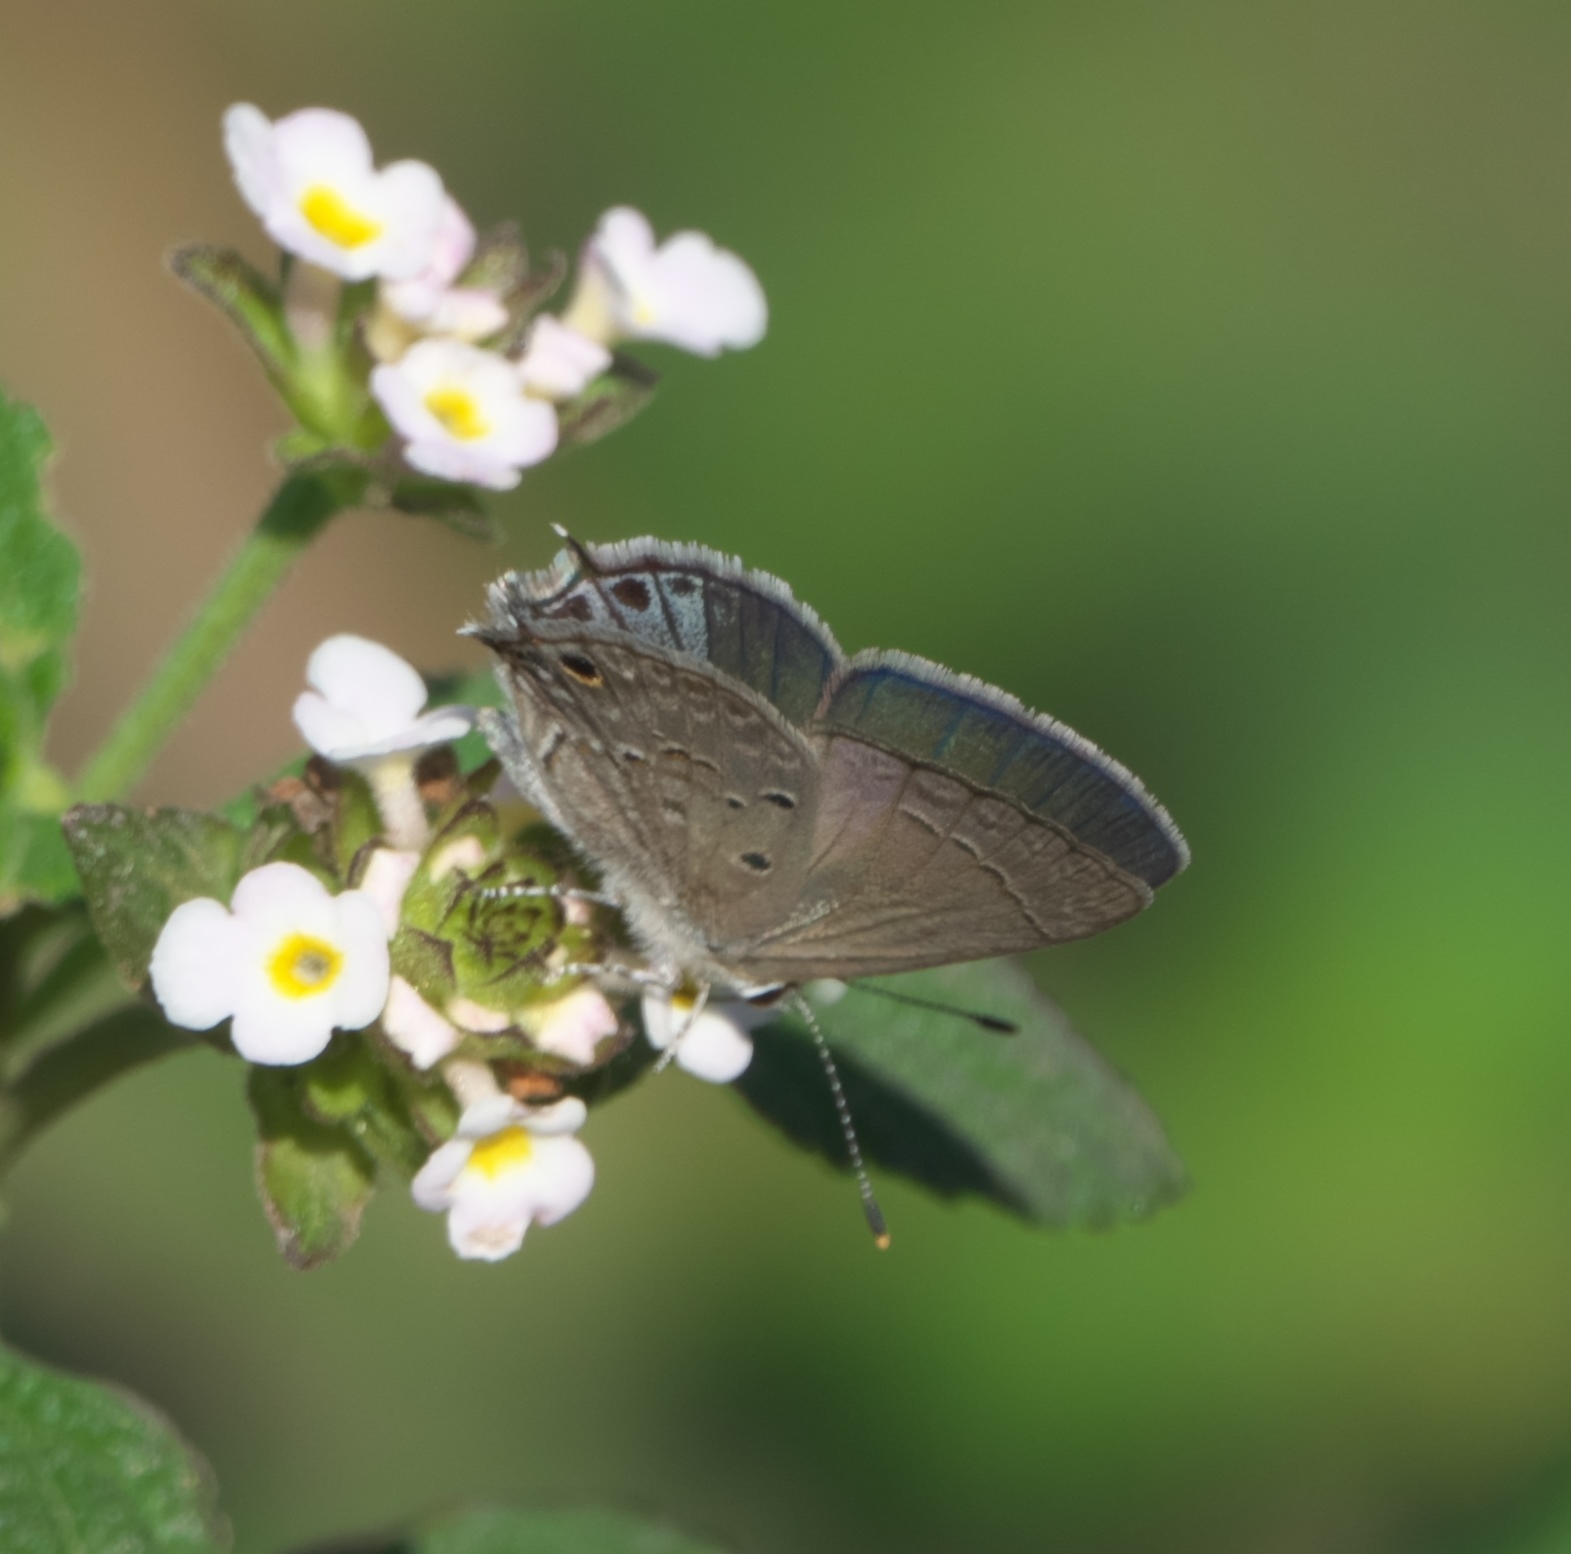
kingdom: Animalia
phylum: Arthropoda
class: Insecta
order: Lepidoptera
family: Lycaenidae
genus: Callicista
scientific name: Callicista columella
